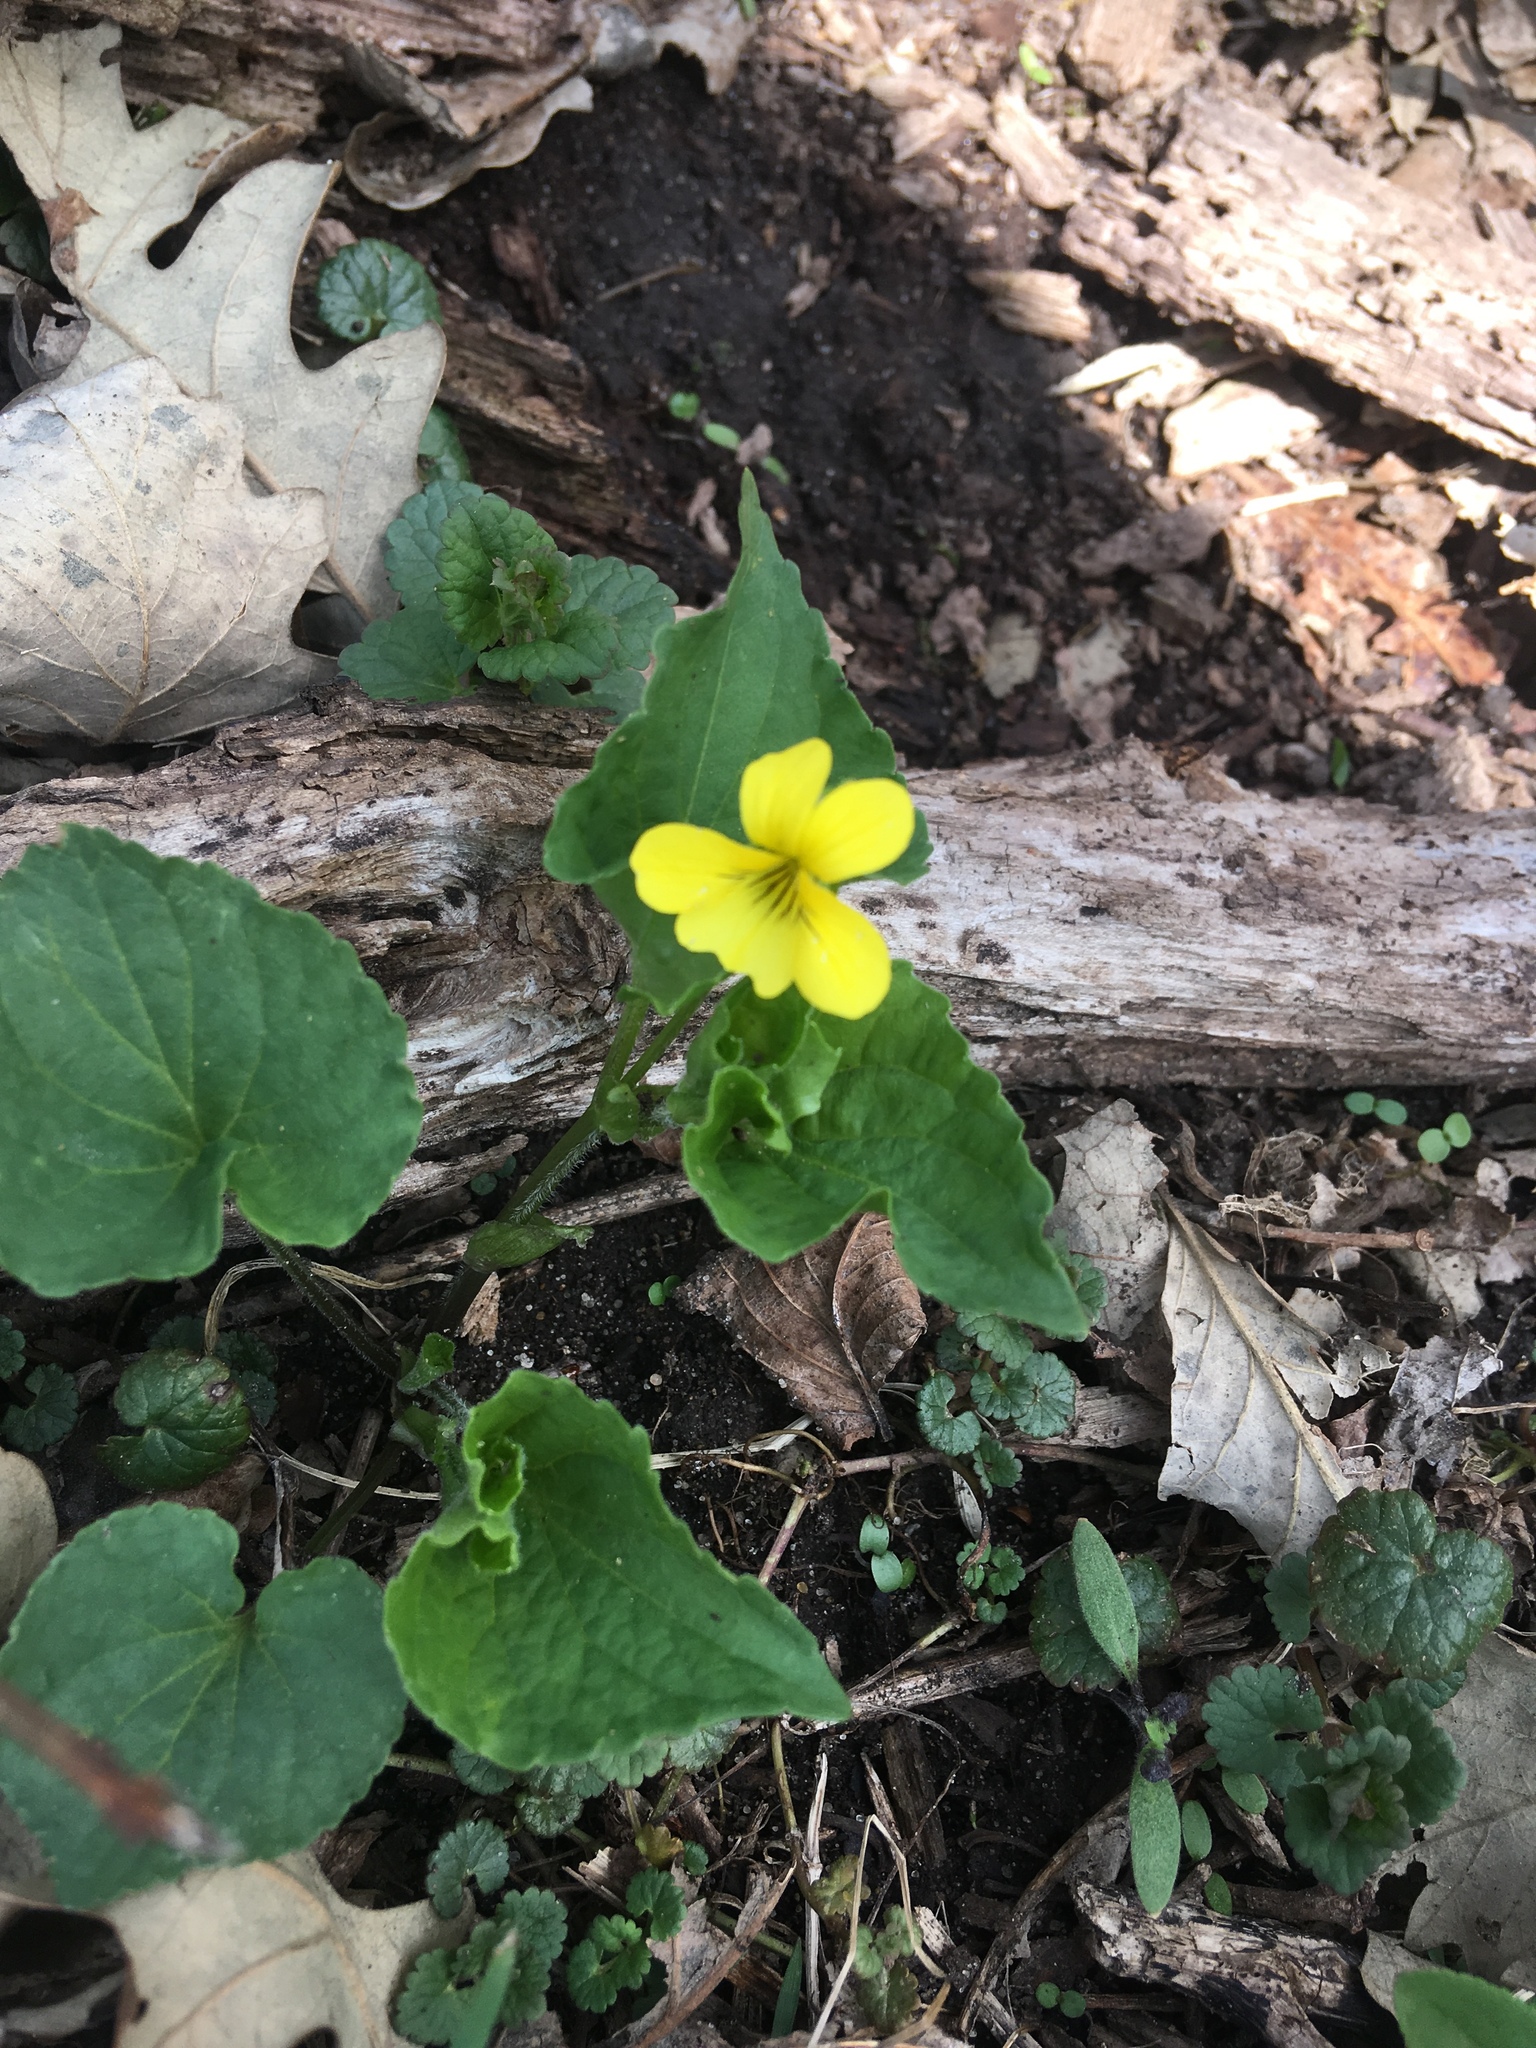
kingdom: Plantae
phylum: Tracheophyta
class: Magnoliopsida
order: Malpighiales
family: Violaceae
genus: Viola
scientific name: Viola eriocarpa
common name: Smooth yellow violet
